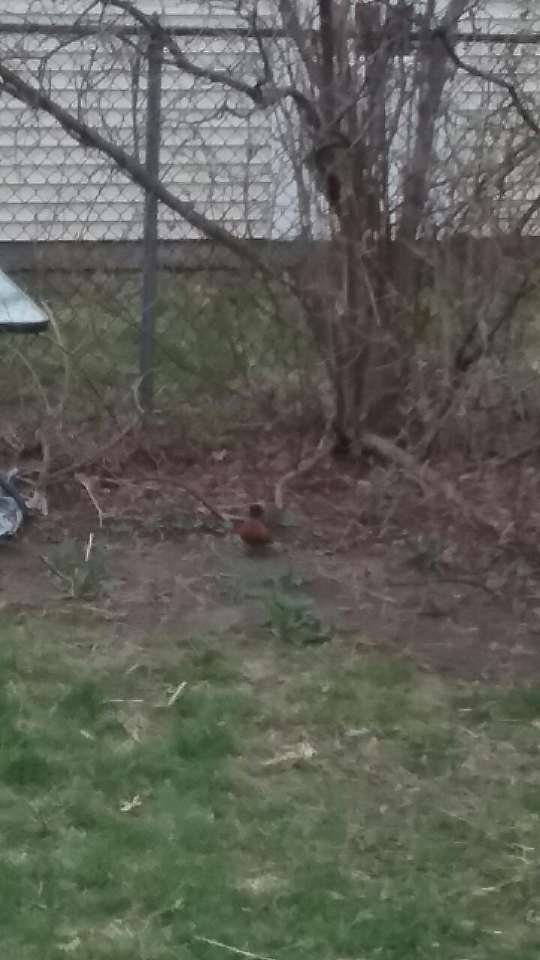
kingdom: Animalia
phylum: Chordata
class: Aves
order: Passeriformes
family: Turdidae
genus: Turdus
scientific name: Turdus migratorius
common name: American robin
